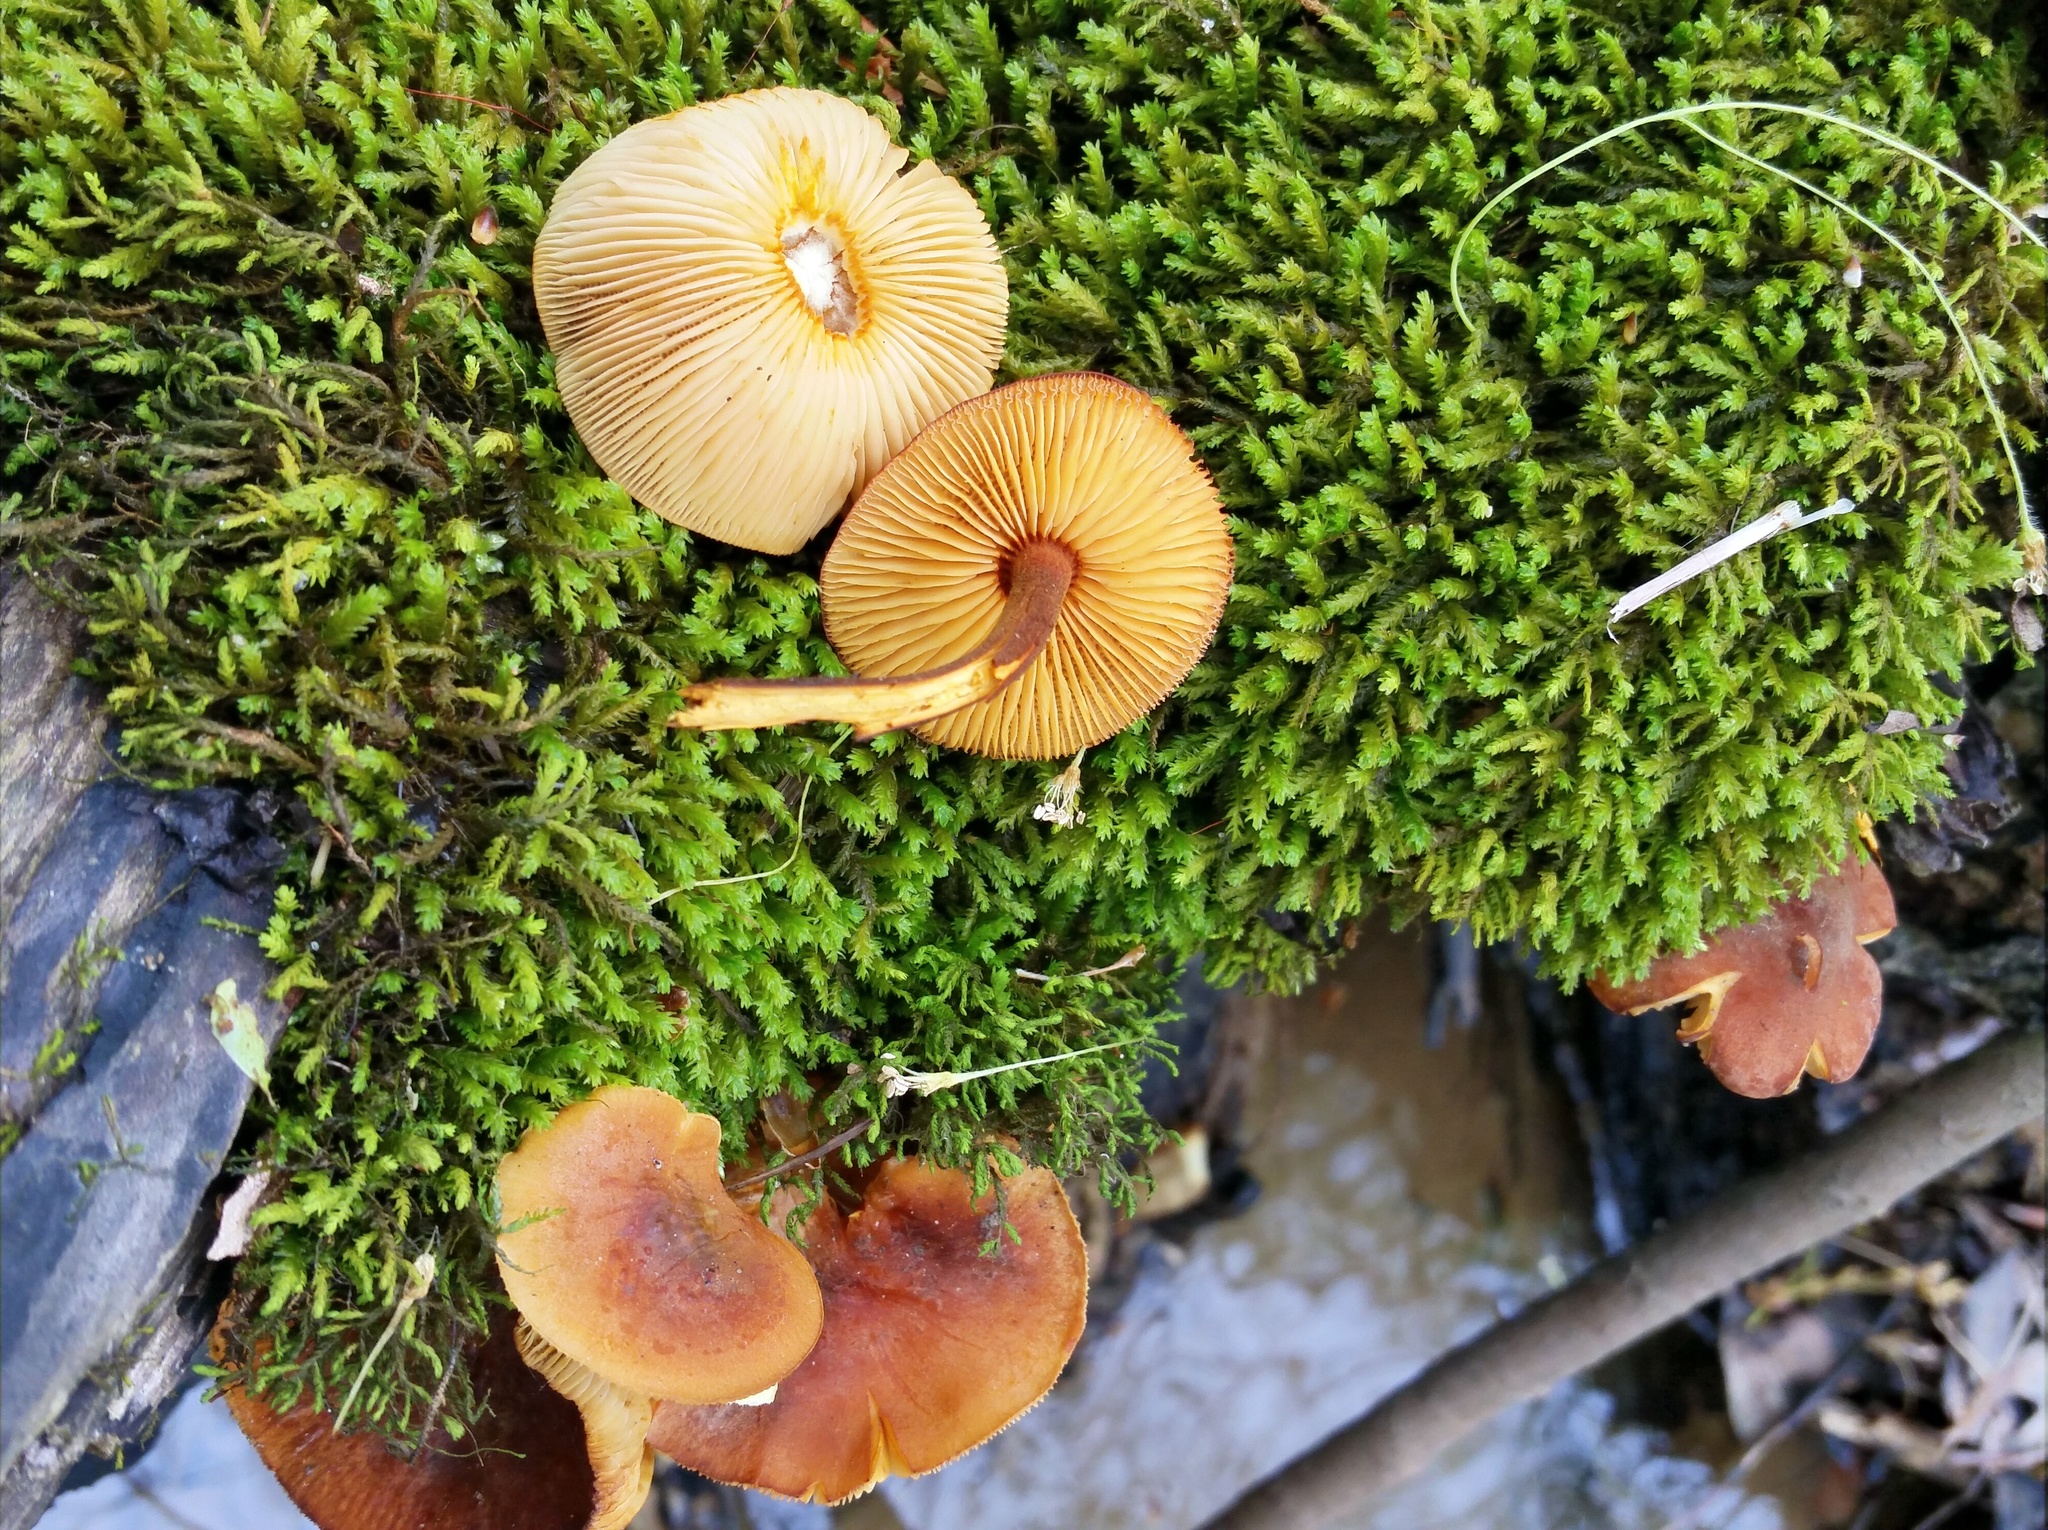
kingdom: Fungi
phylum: Basidiomycota
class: Agaricomycetes
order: Agaricales
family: Mycenaceae
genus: Xeromphalina
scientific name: Xeromphalina tenuipes
